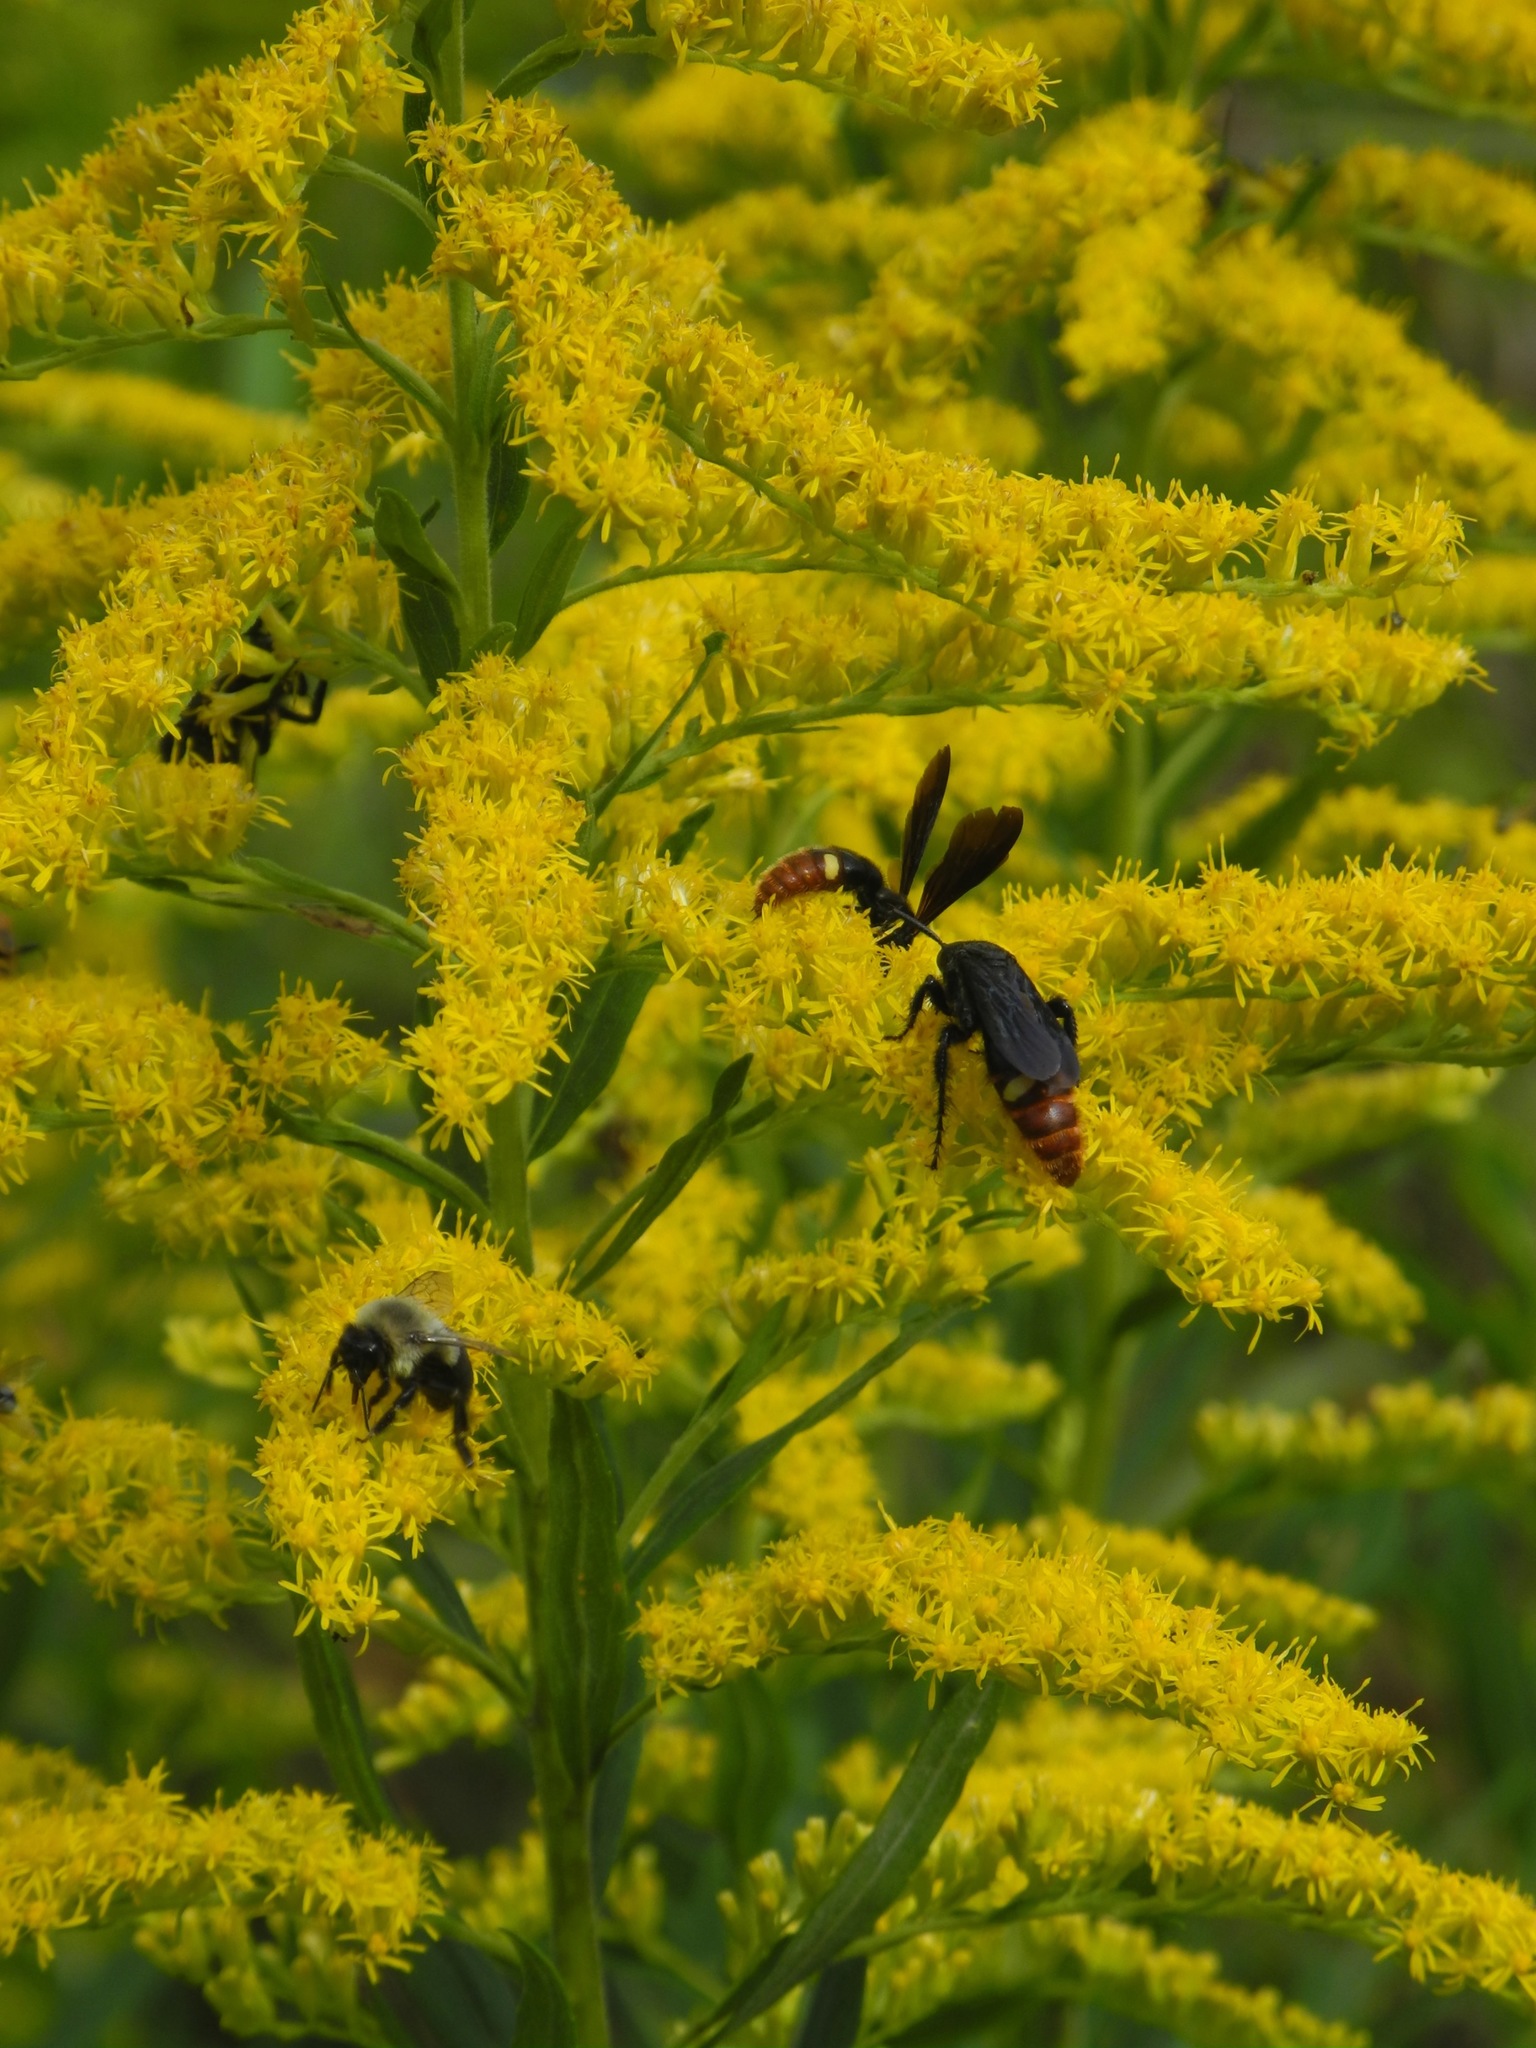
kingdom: Plantae
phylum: Tracheophyta
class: Magnoliopsida
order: Asterales
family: Asteraceae
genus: Solidago
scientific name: Solidago altissima
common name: Late goldenrod
